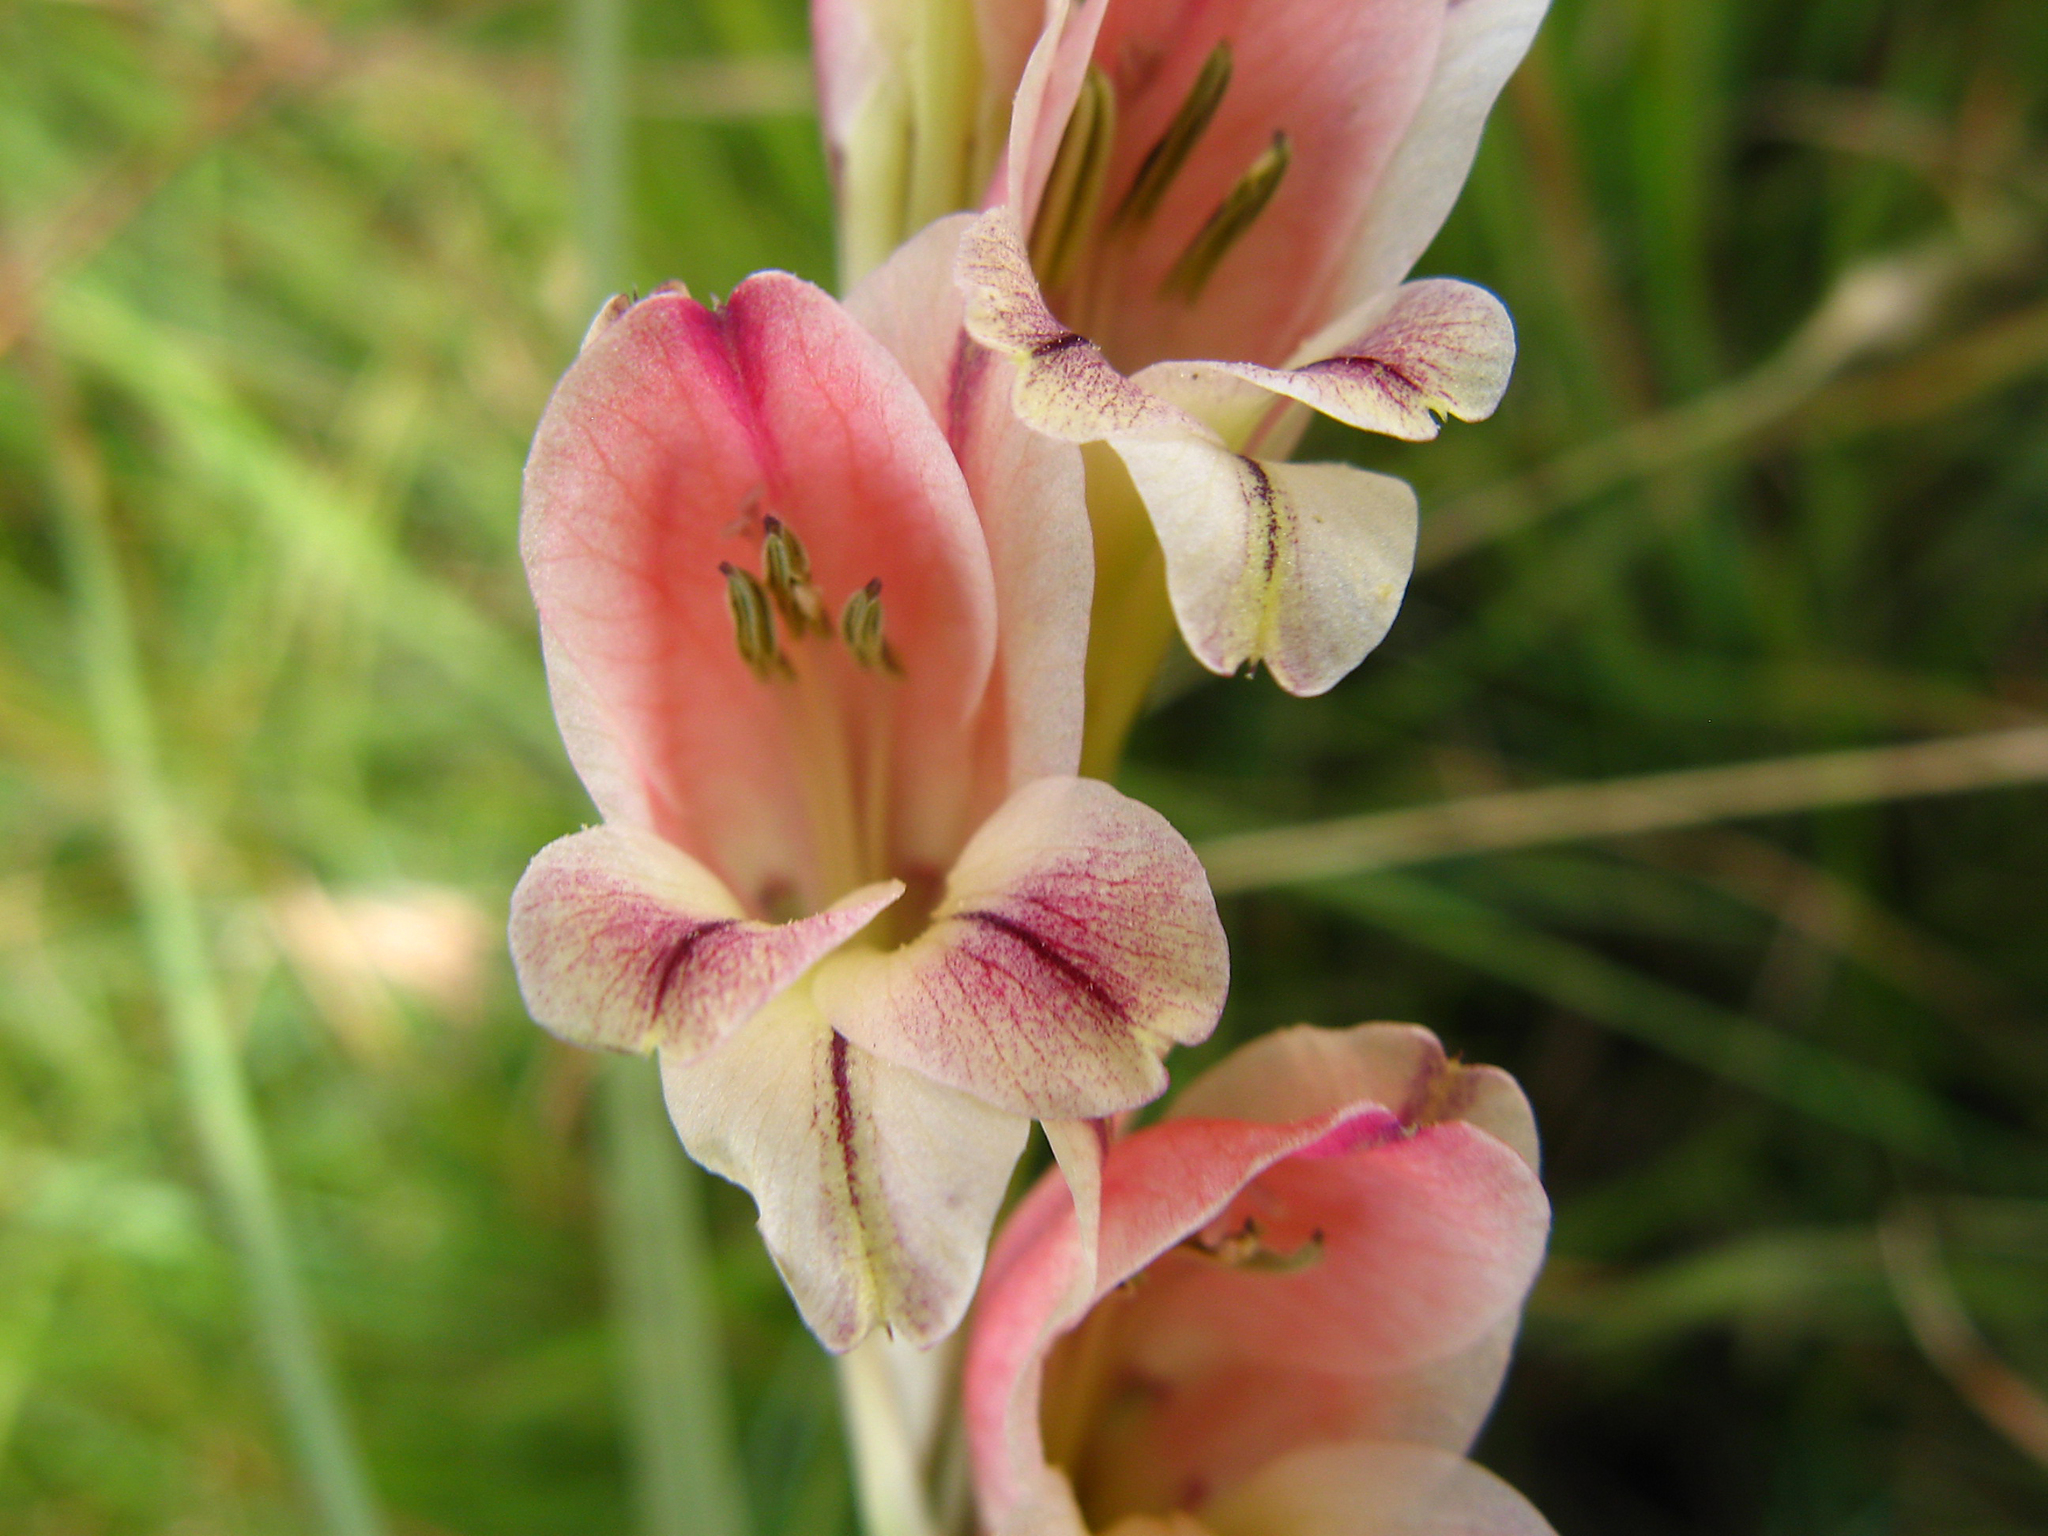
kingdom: Plantae
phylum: Tracheophyta
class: Liliopsida
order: Asparagales
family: Iridaceae
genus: Gladiolus
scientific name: Gladiolus crassifolius
